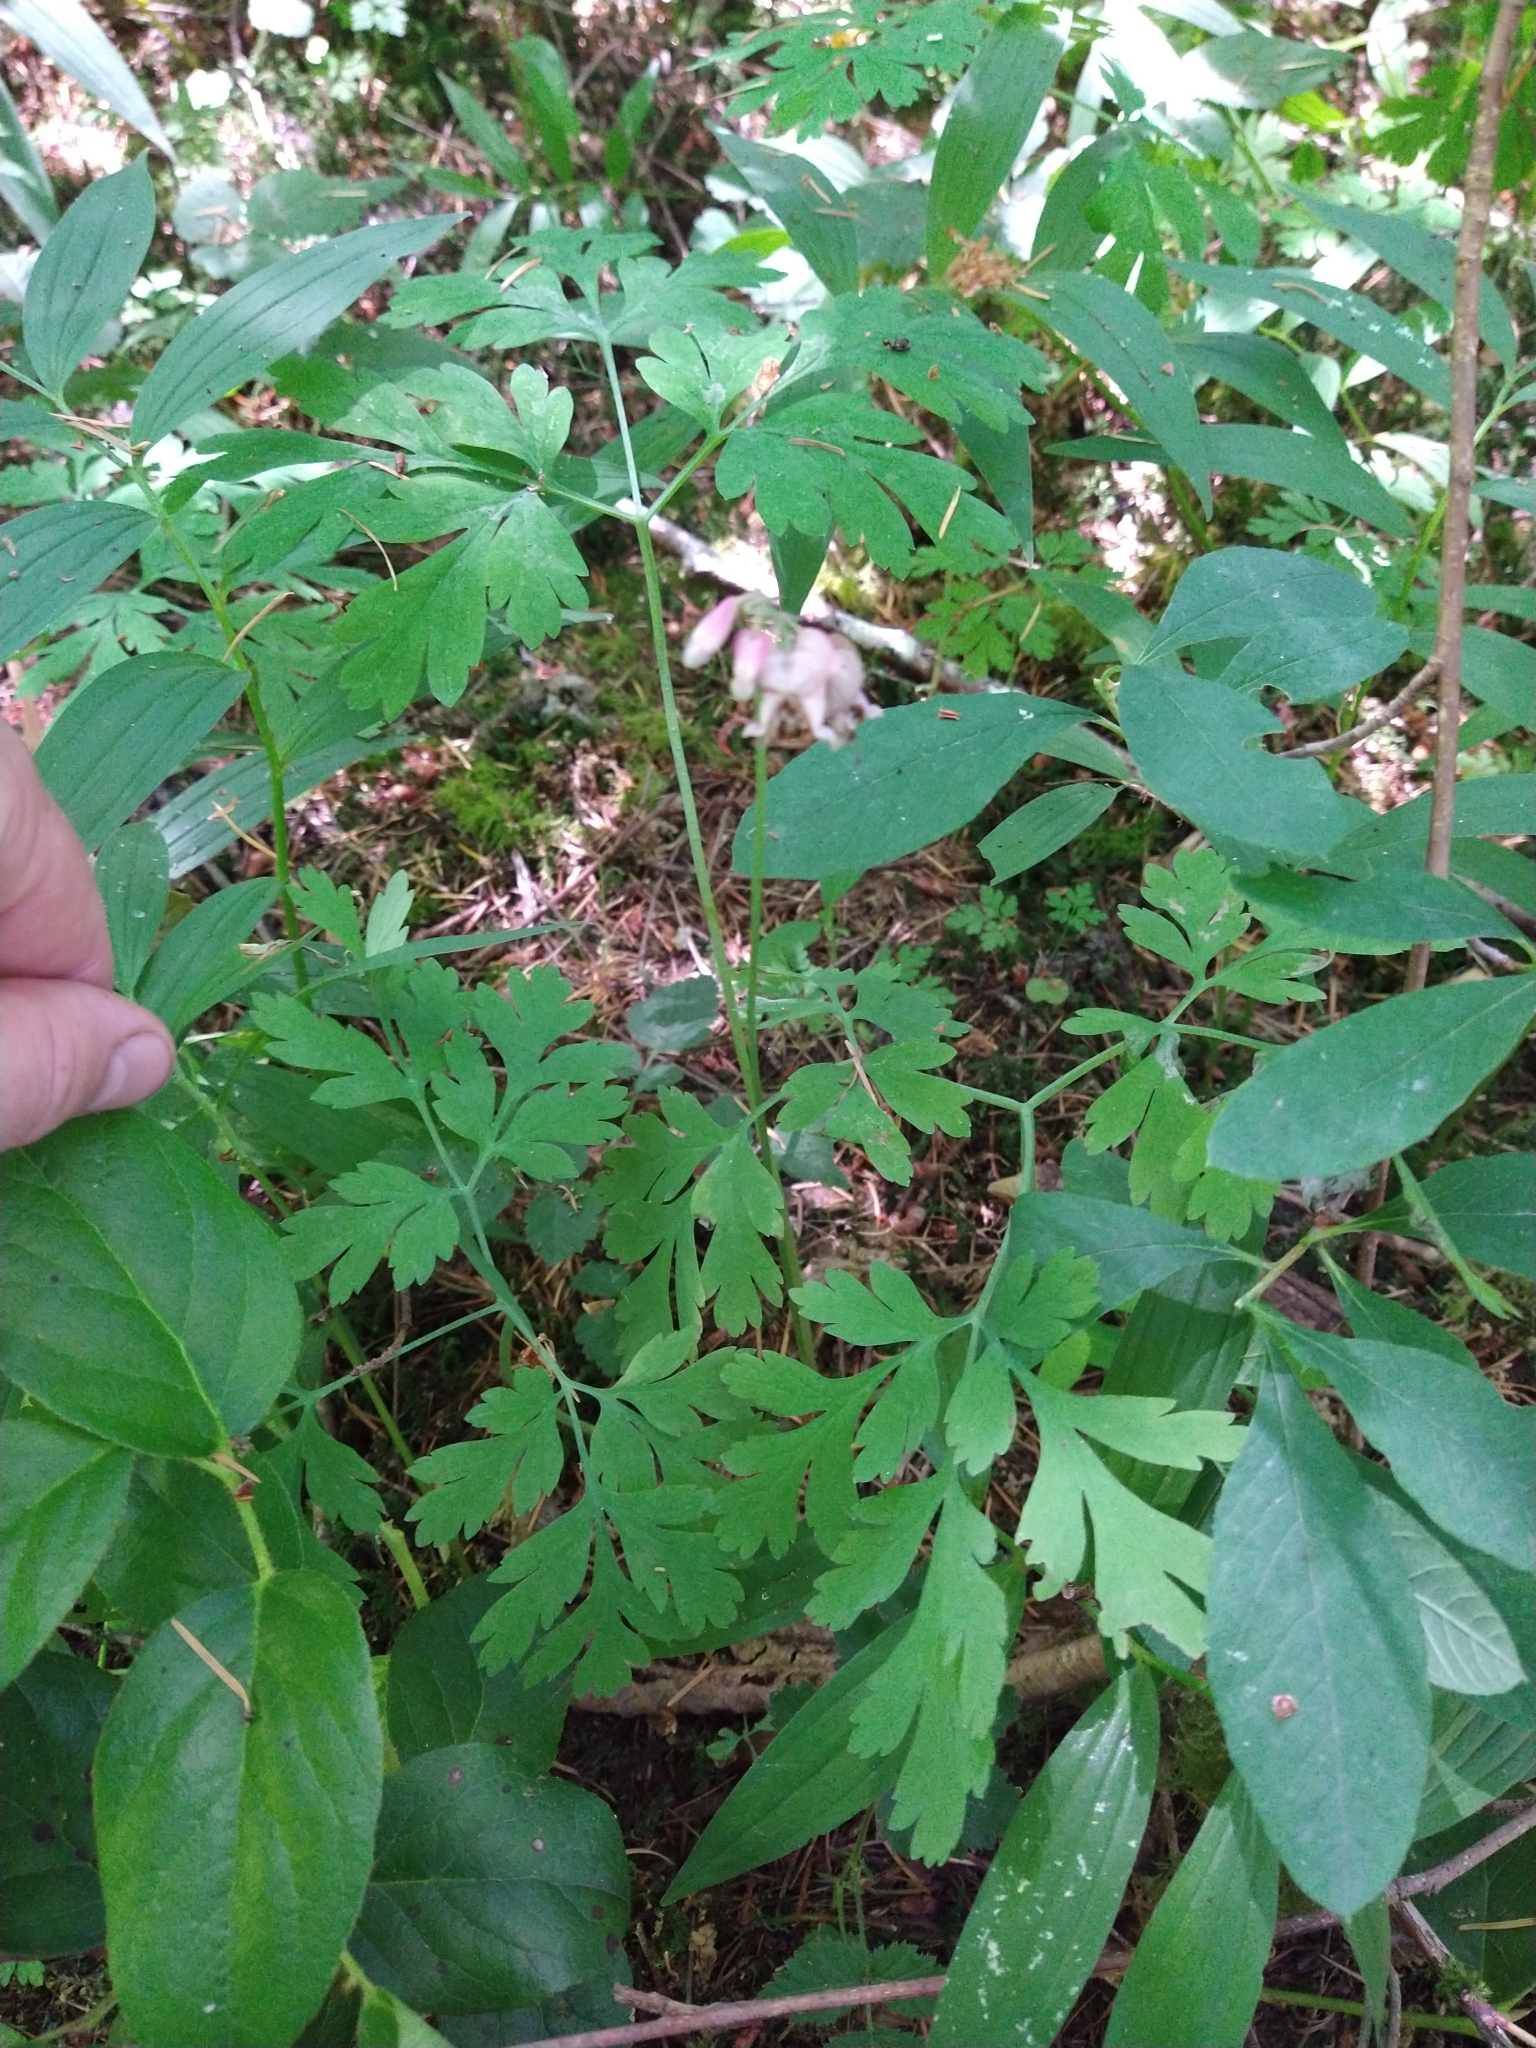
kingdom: Plantae
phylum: Tracheophyta
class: Magnoliopsida
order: Ranunculales
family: Papaveraceae
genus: Dicentra
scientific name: Dicentra formosa
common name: Bleeding-heart
